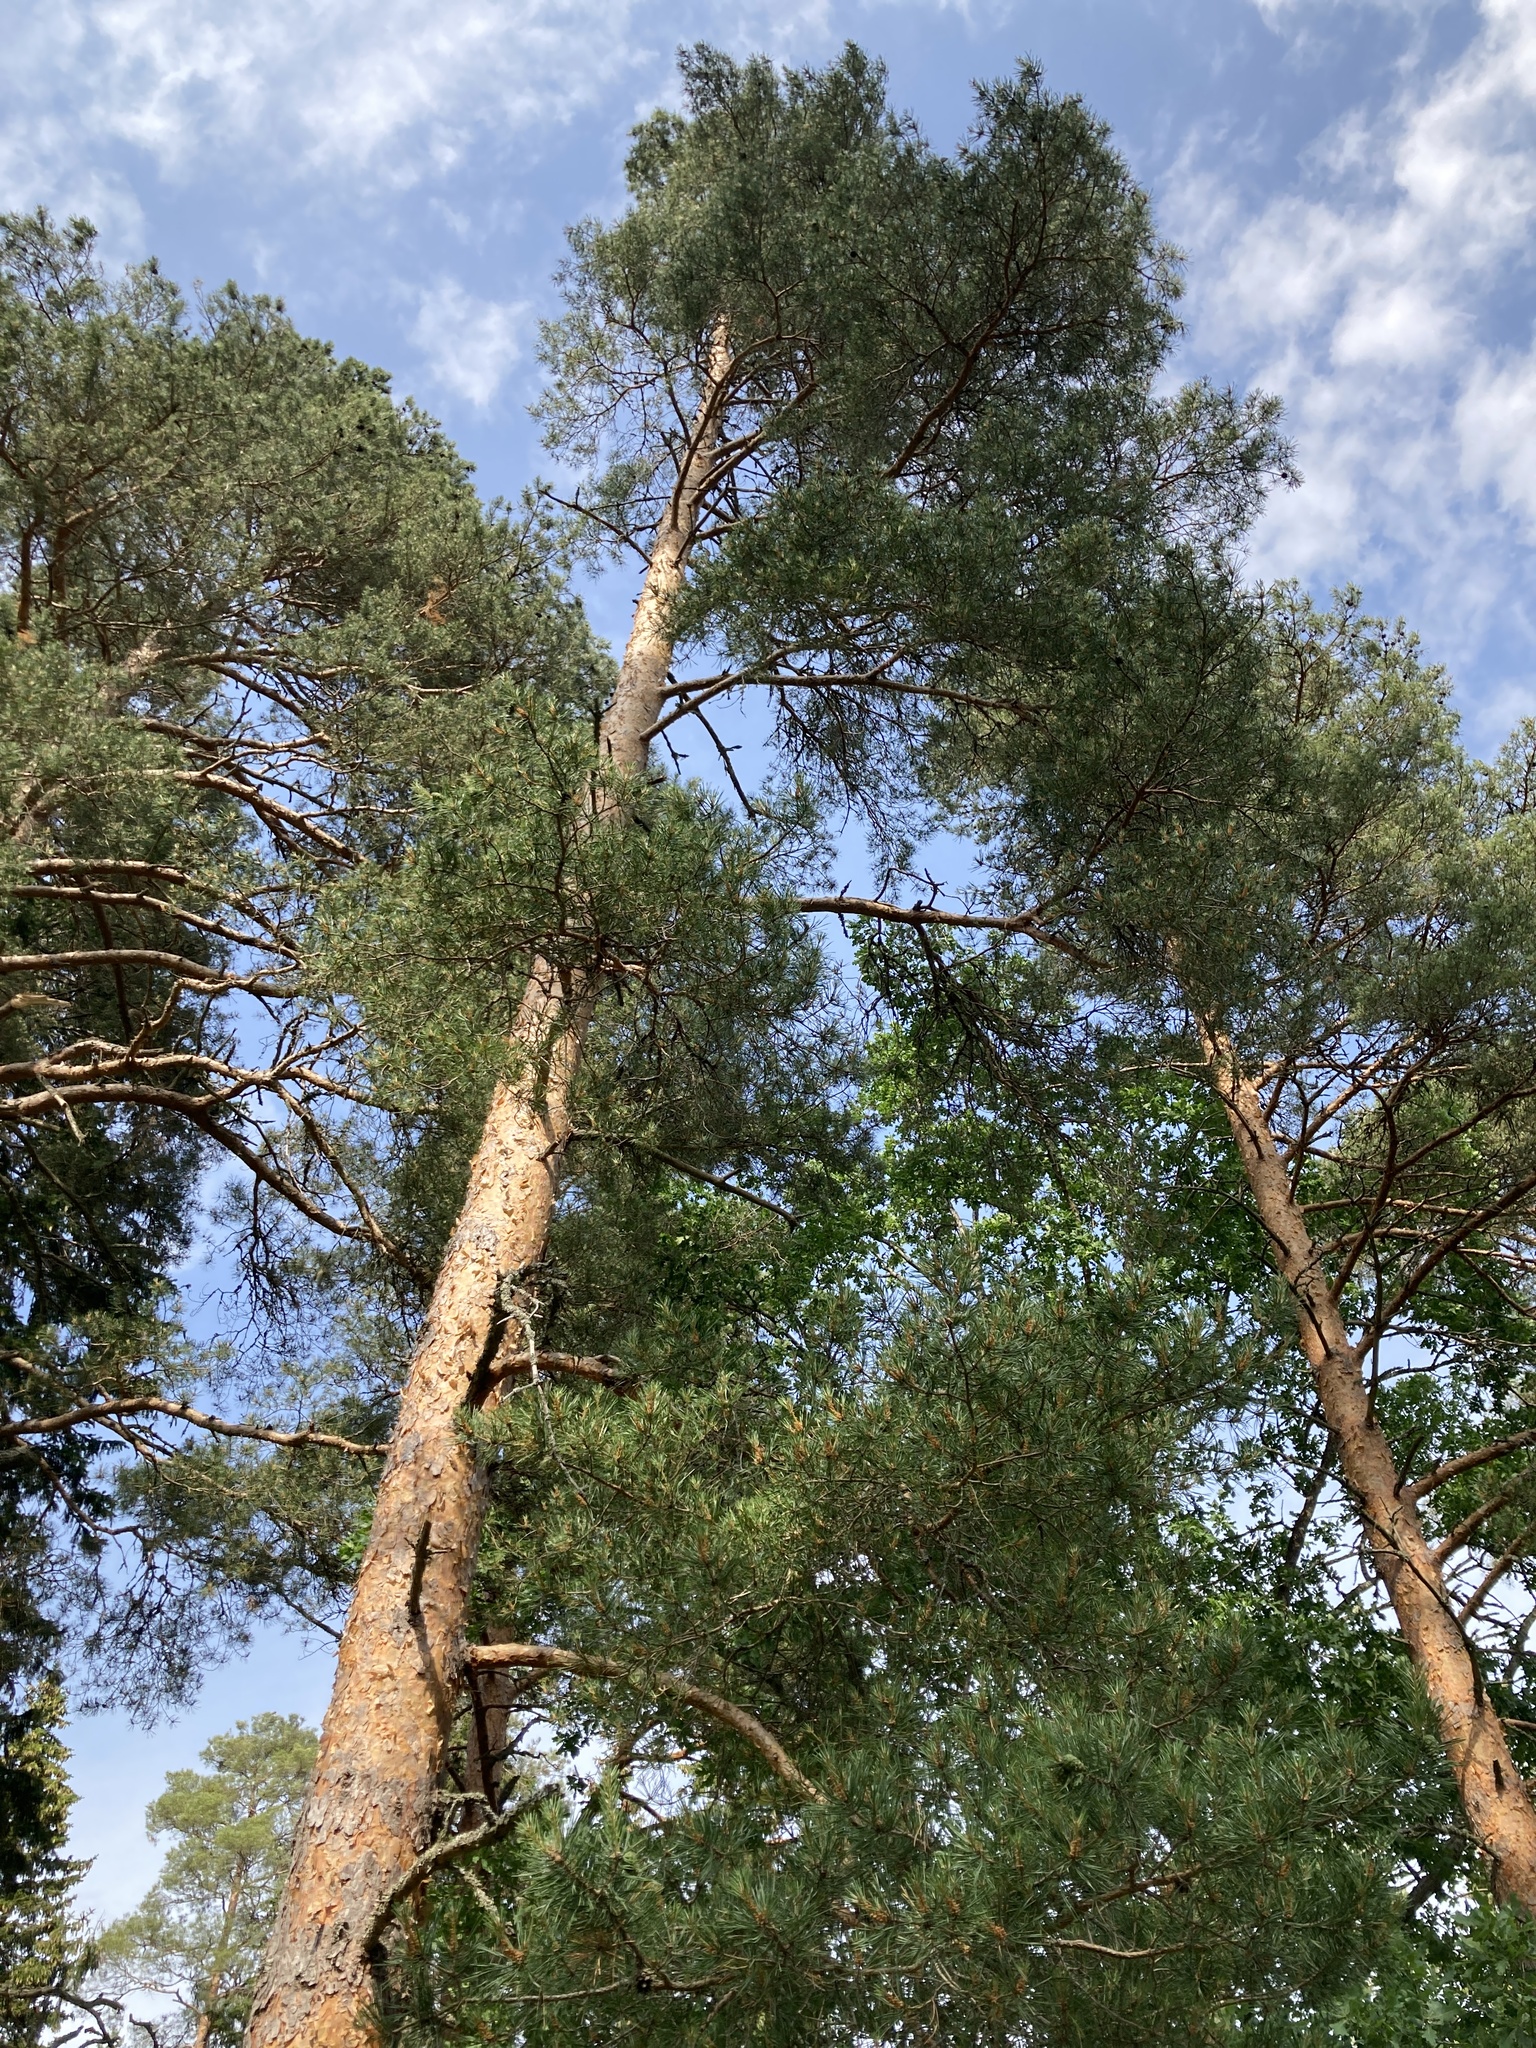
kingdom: Plantae
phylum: Tracheophyta
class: Pinopsida
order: Pinales
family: Pinaceae
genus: Pinus
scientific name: Pinus sylvestris
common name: Scots pine
